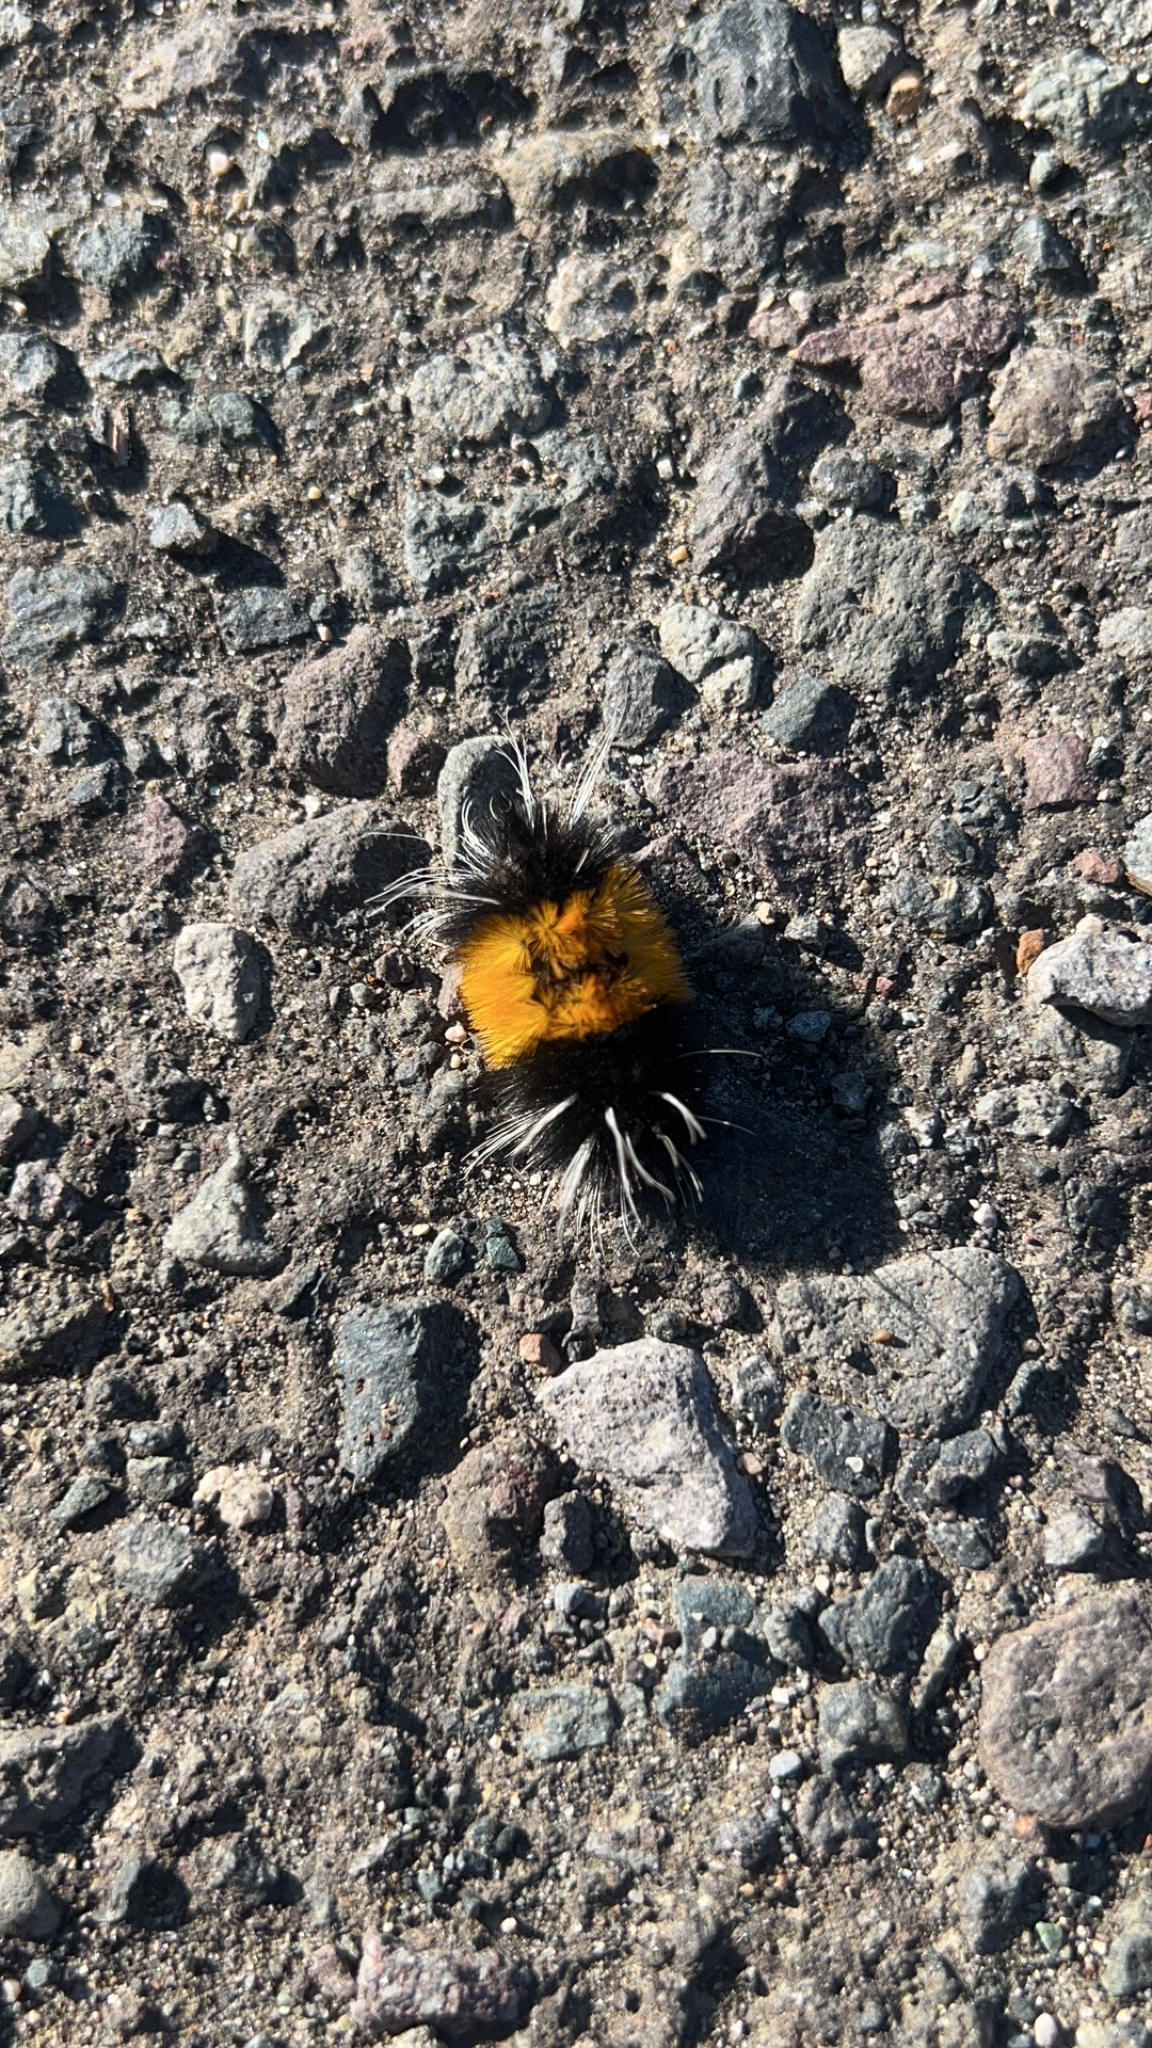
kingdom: Animalia
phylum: Arthropoda
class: Insecta
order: Lepidoptera
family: Erebidae
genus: Lophocampa
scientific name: Lophocampa maculata
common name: Spotted tussock moth
